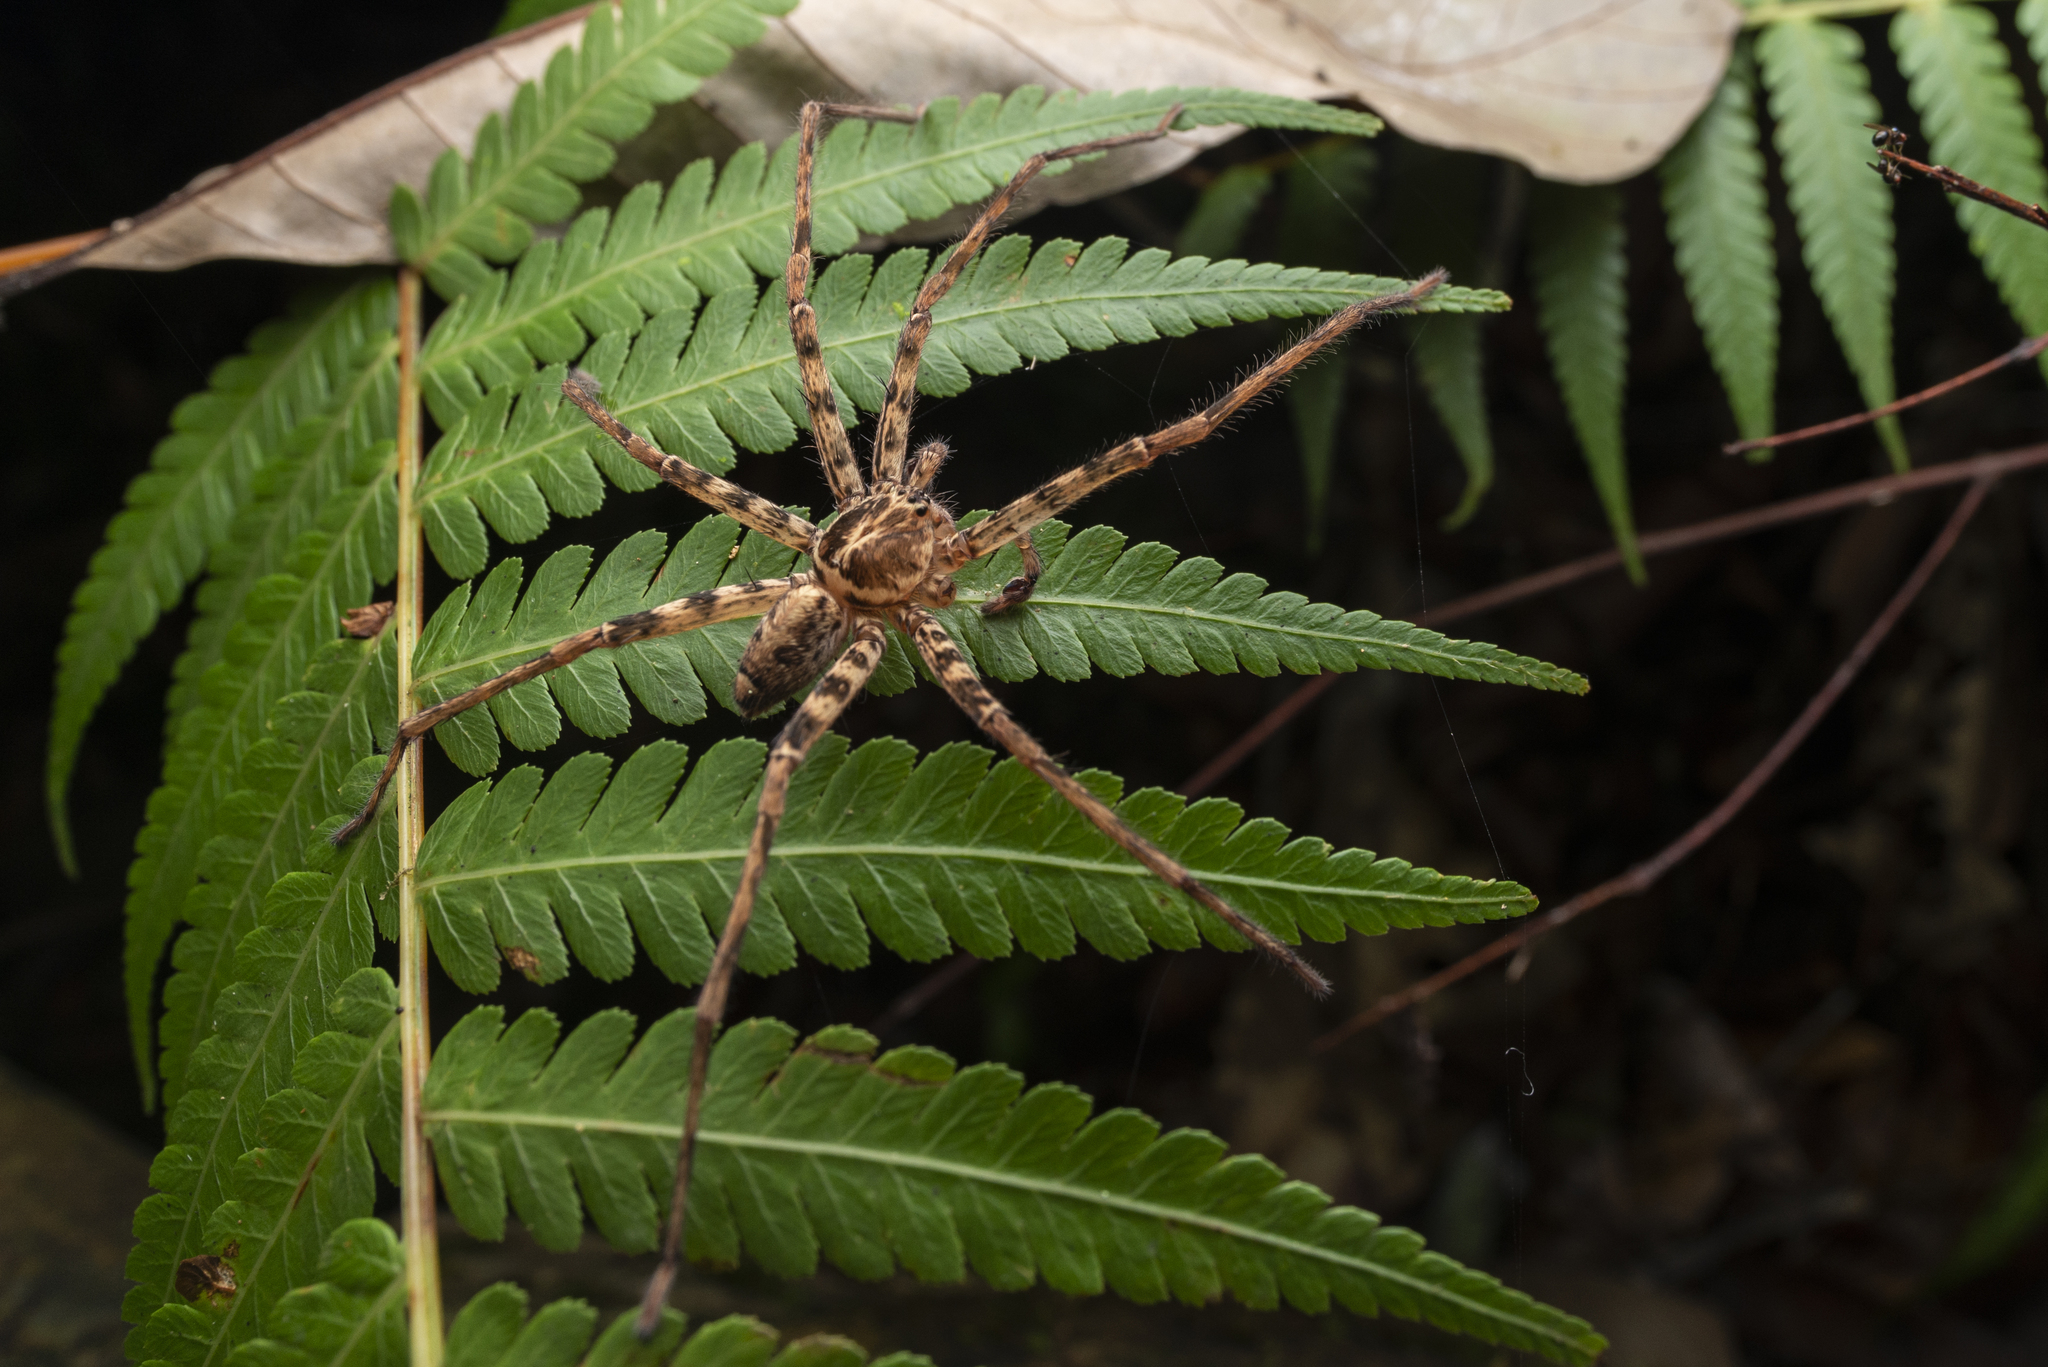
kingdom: Animalia
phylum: Arthropoda
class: Arachnida
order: Araneae
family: Sparassidae
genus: Heteropoda
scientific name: Heteropoda amphora
